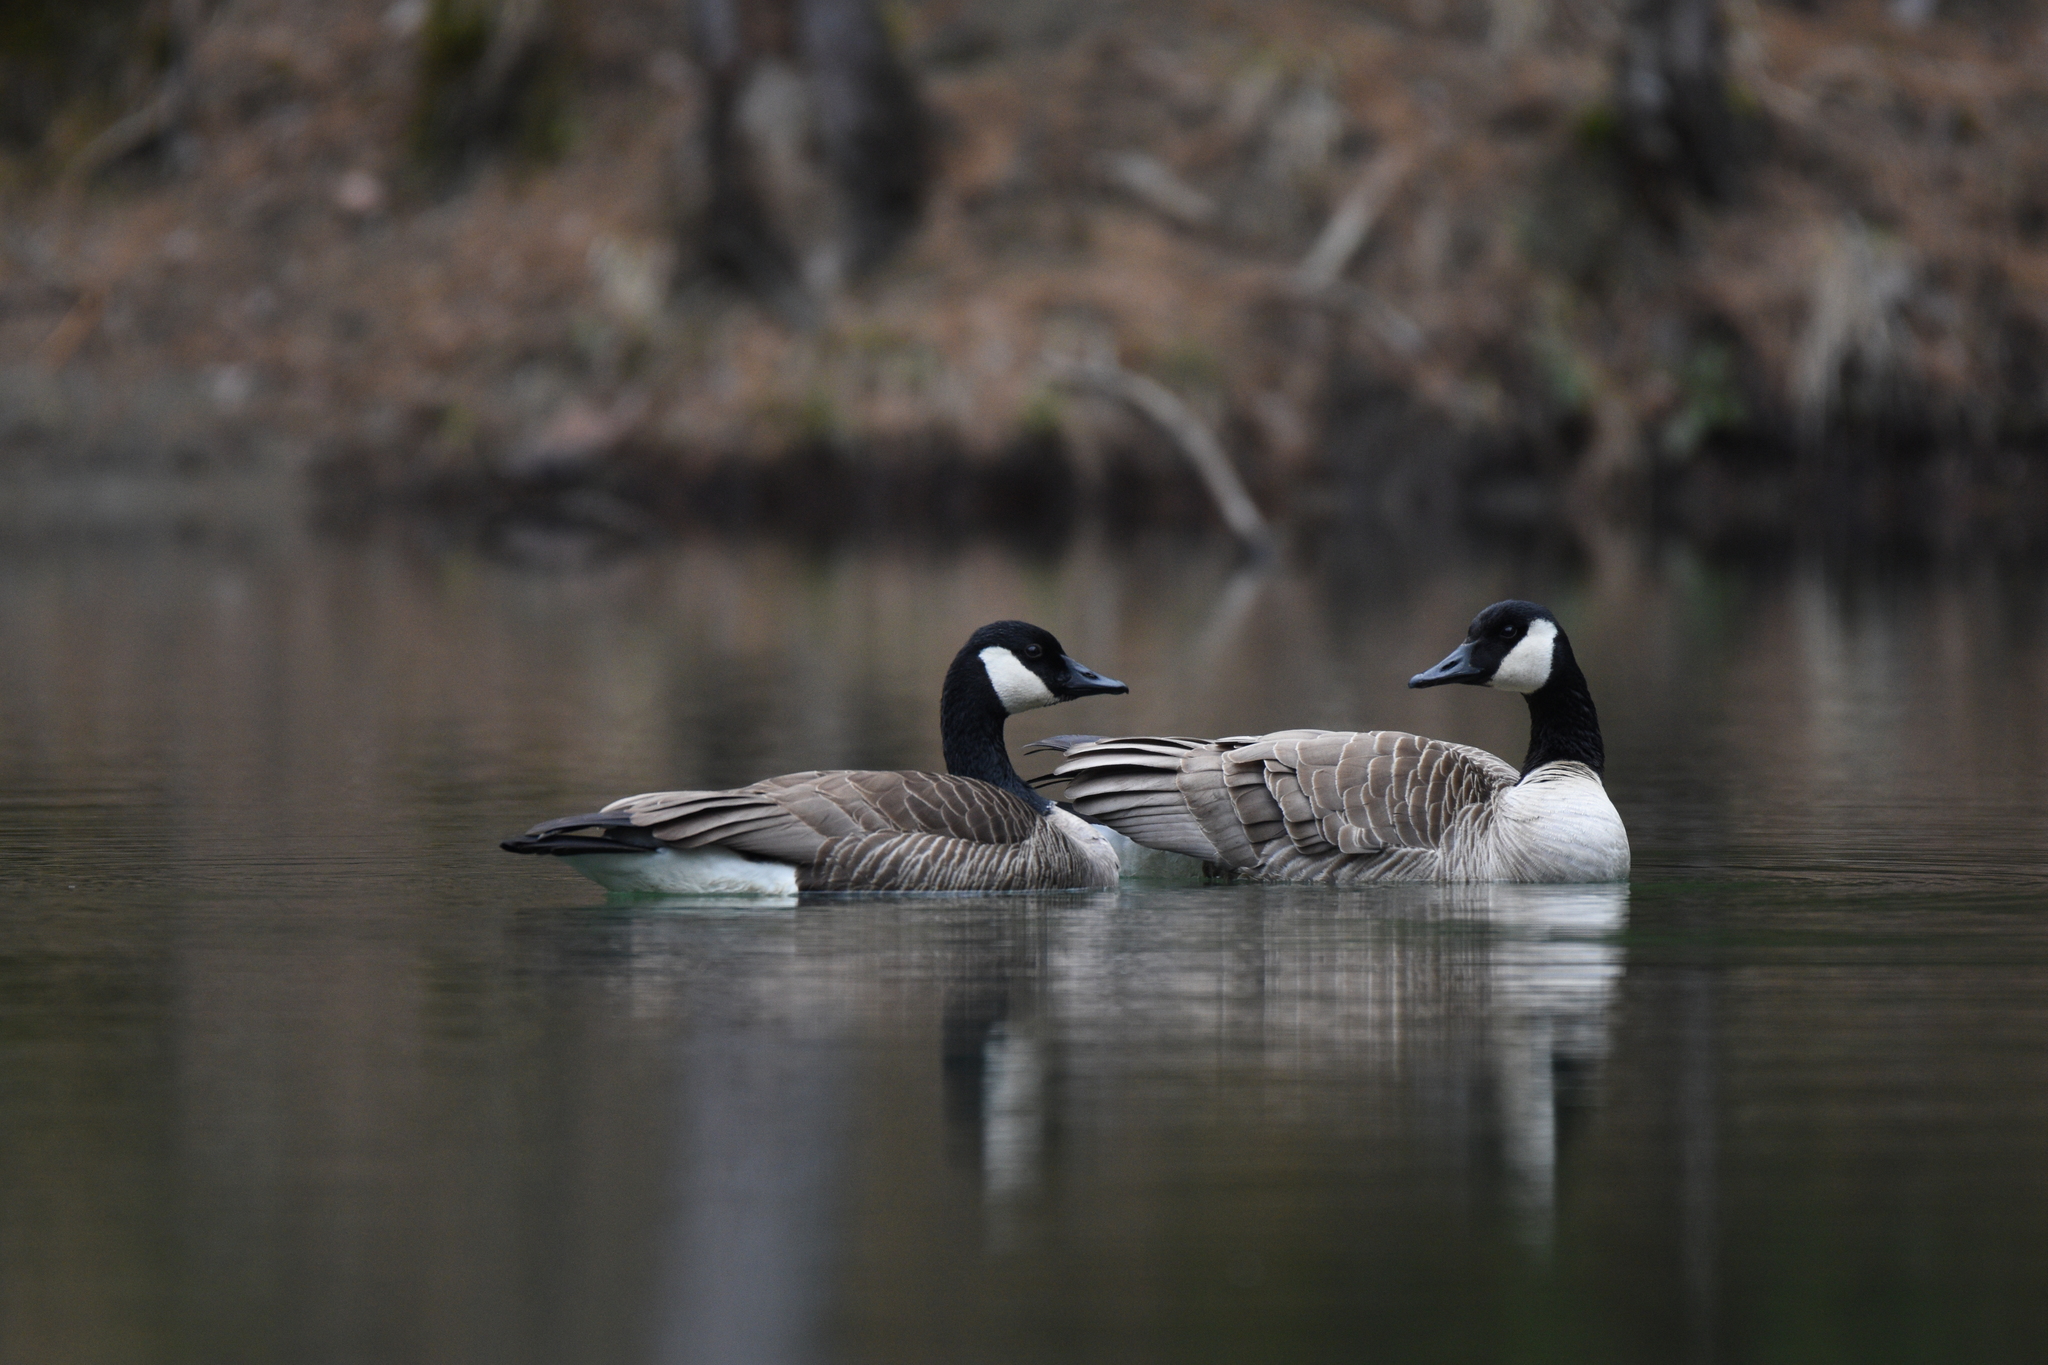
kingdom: Animalia
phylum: Chordata
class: Aves
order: Anseriformes
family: Anatidae
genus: Branta
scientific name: Branta canadensis
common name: Canada goose
